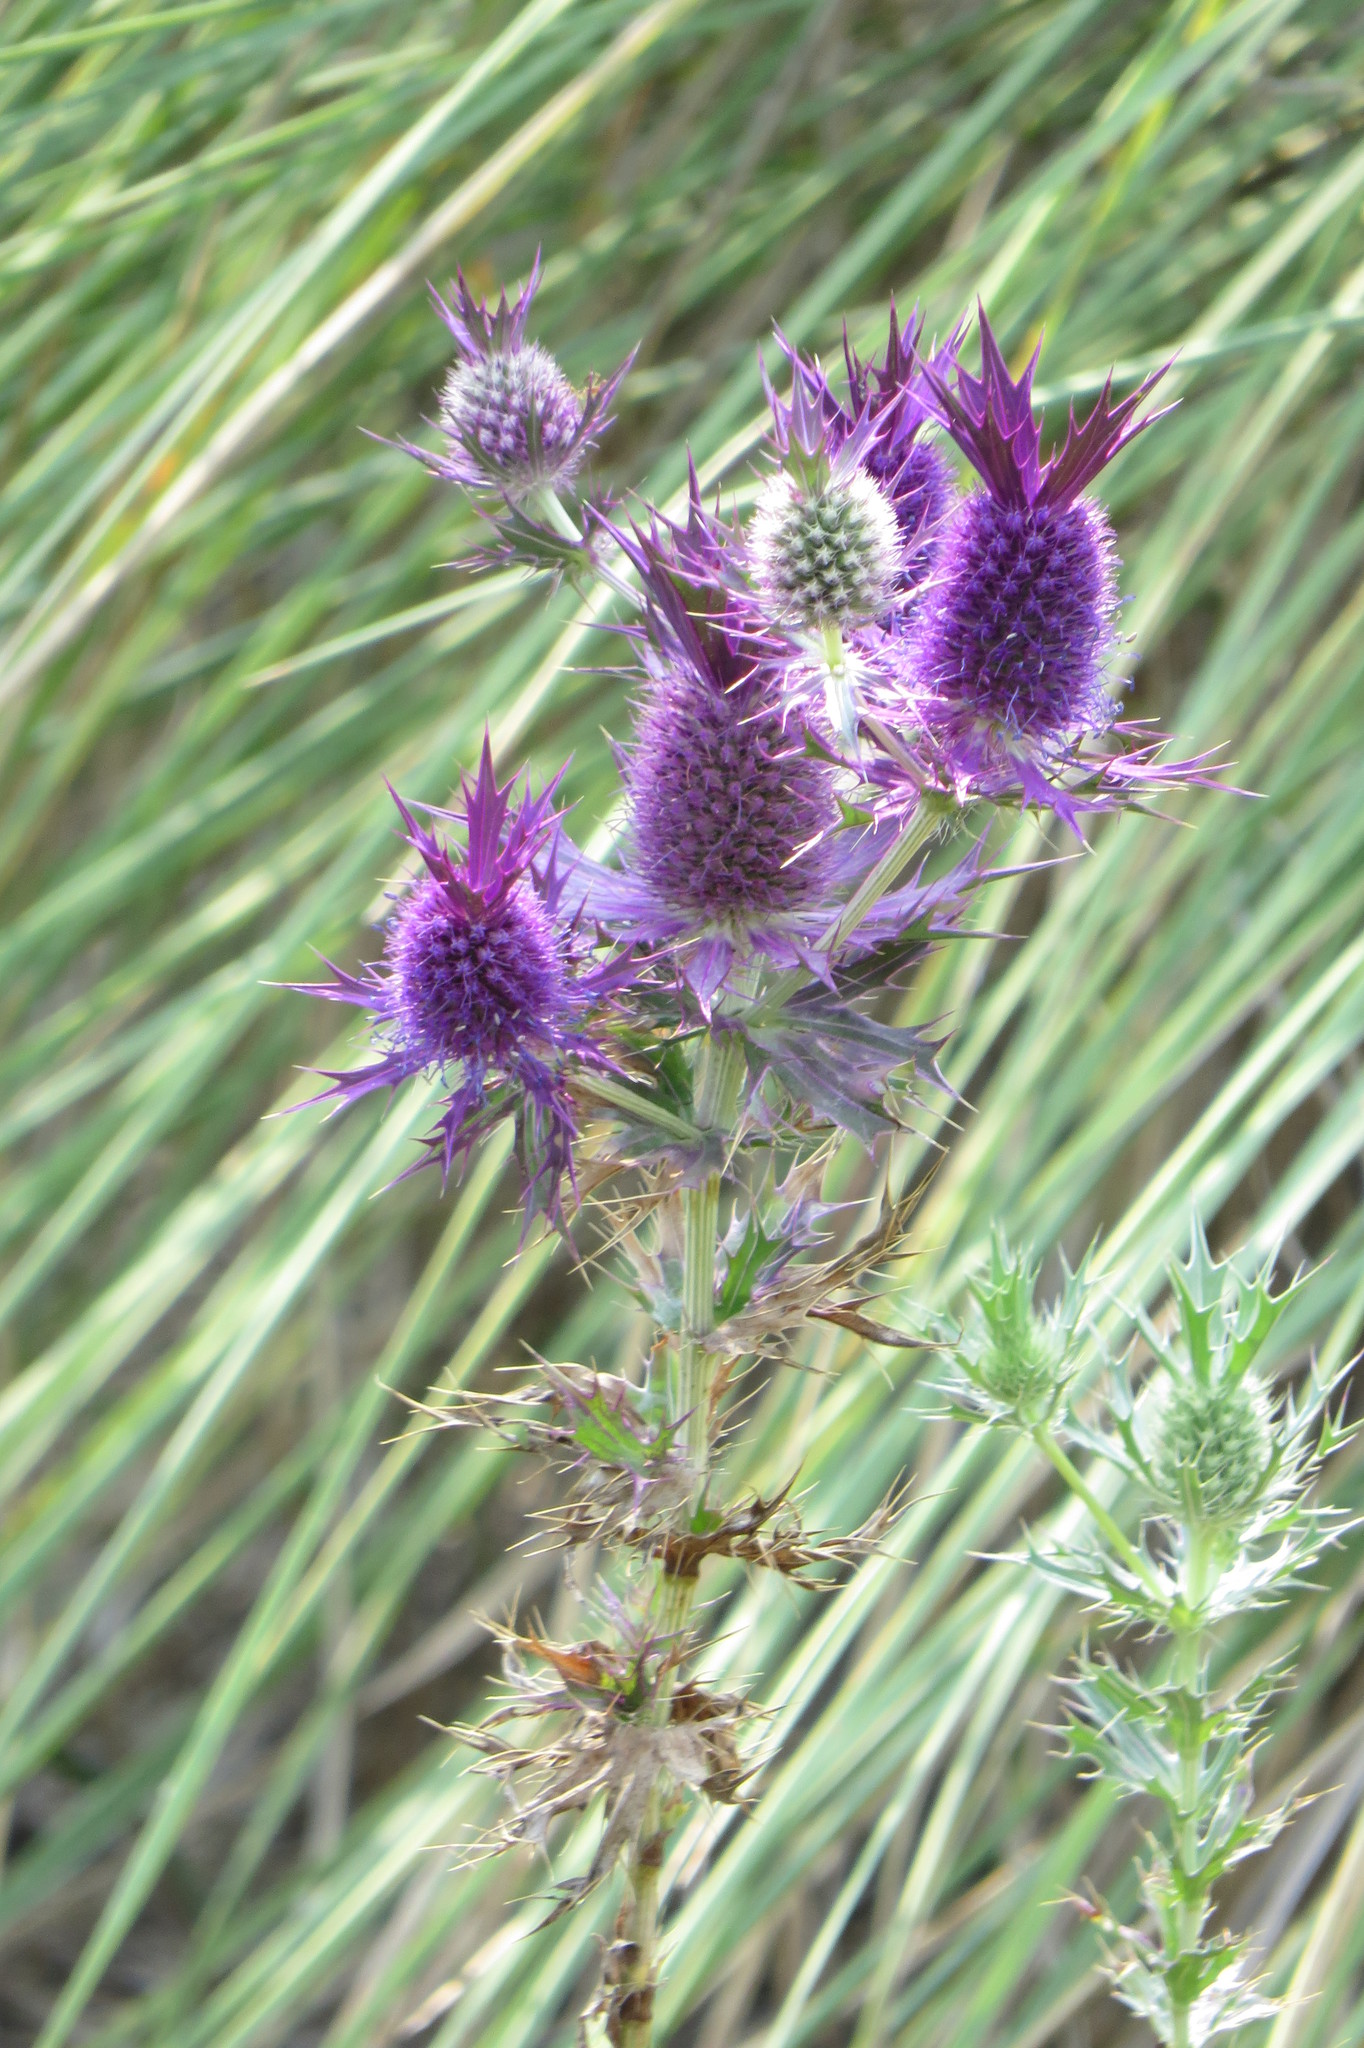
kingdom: Plantae
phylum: Tracheophyta
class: Magnoliopsida
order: Apiales
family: Apiaceae
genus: Eryngium
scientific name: Eryngium leavenworthii
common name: Leavenworth's eryngo
